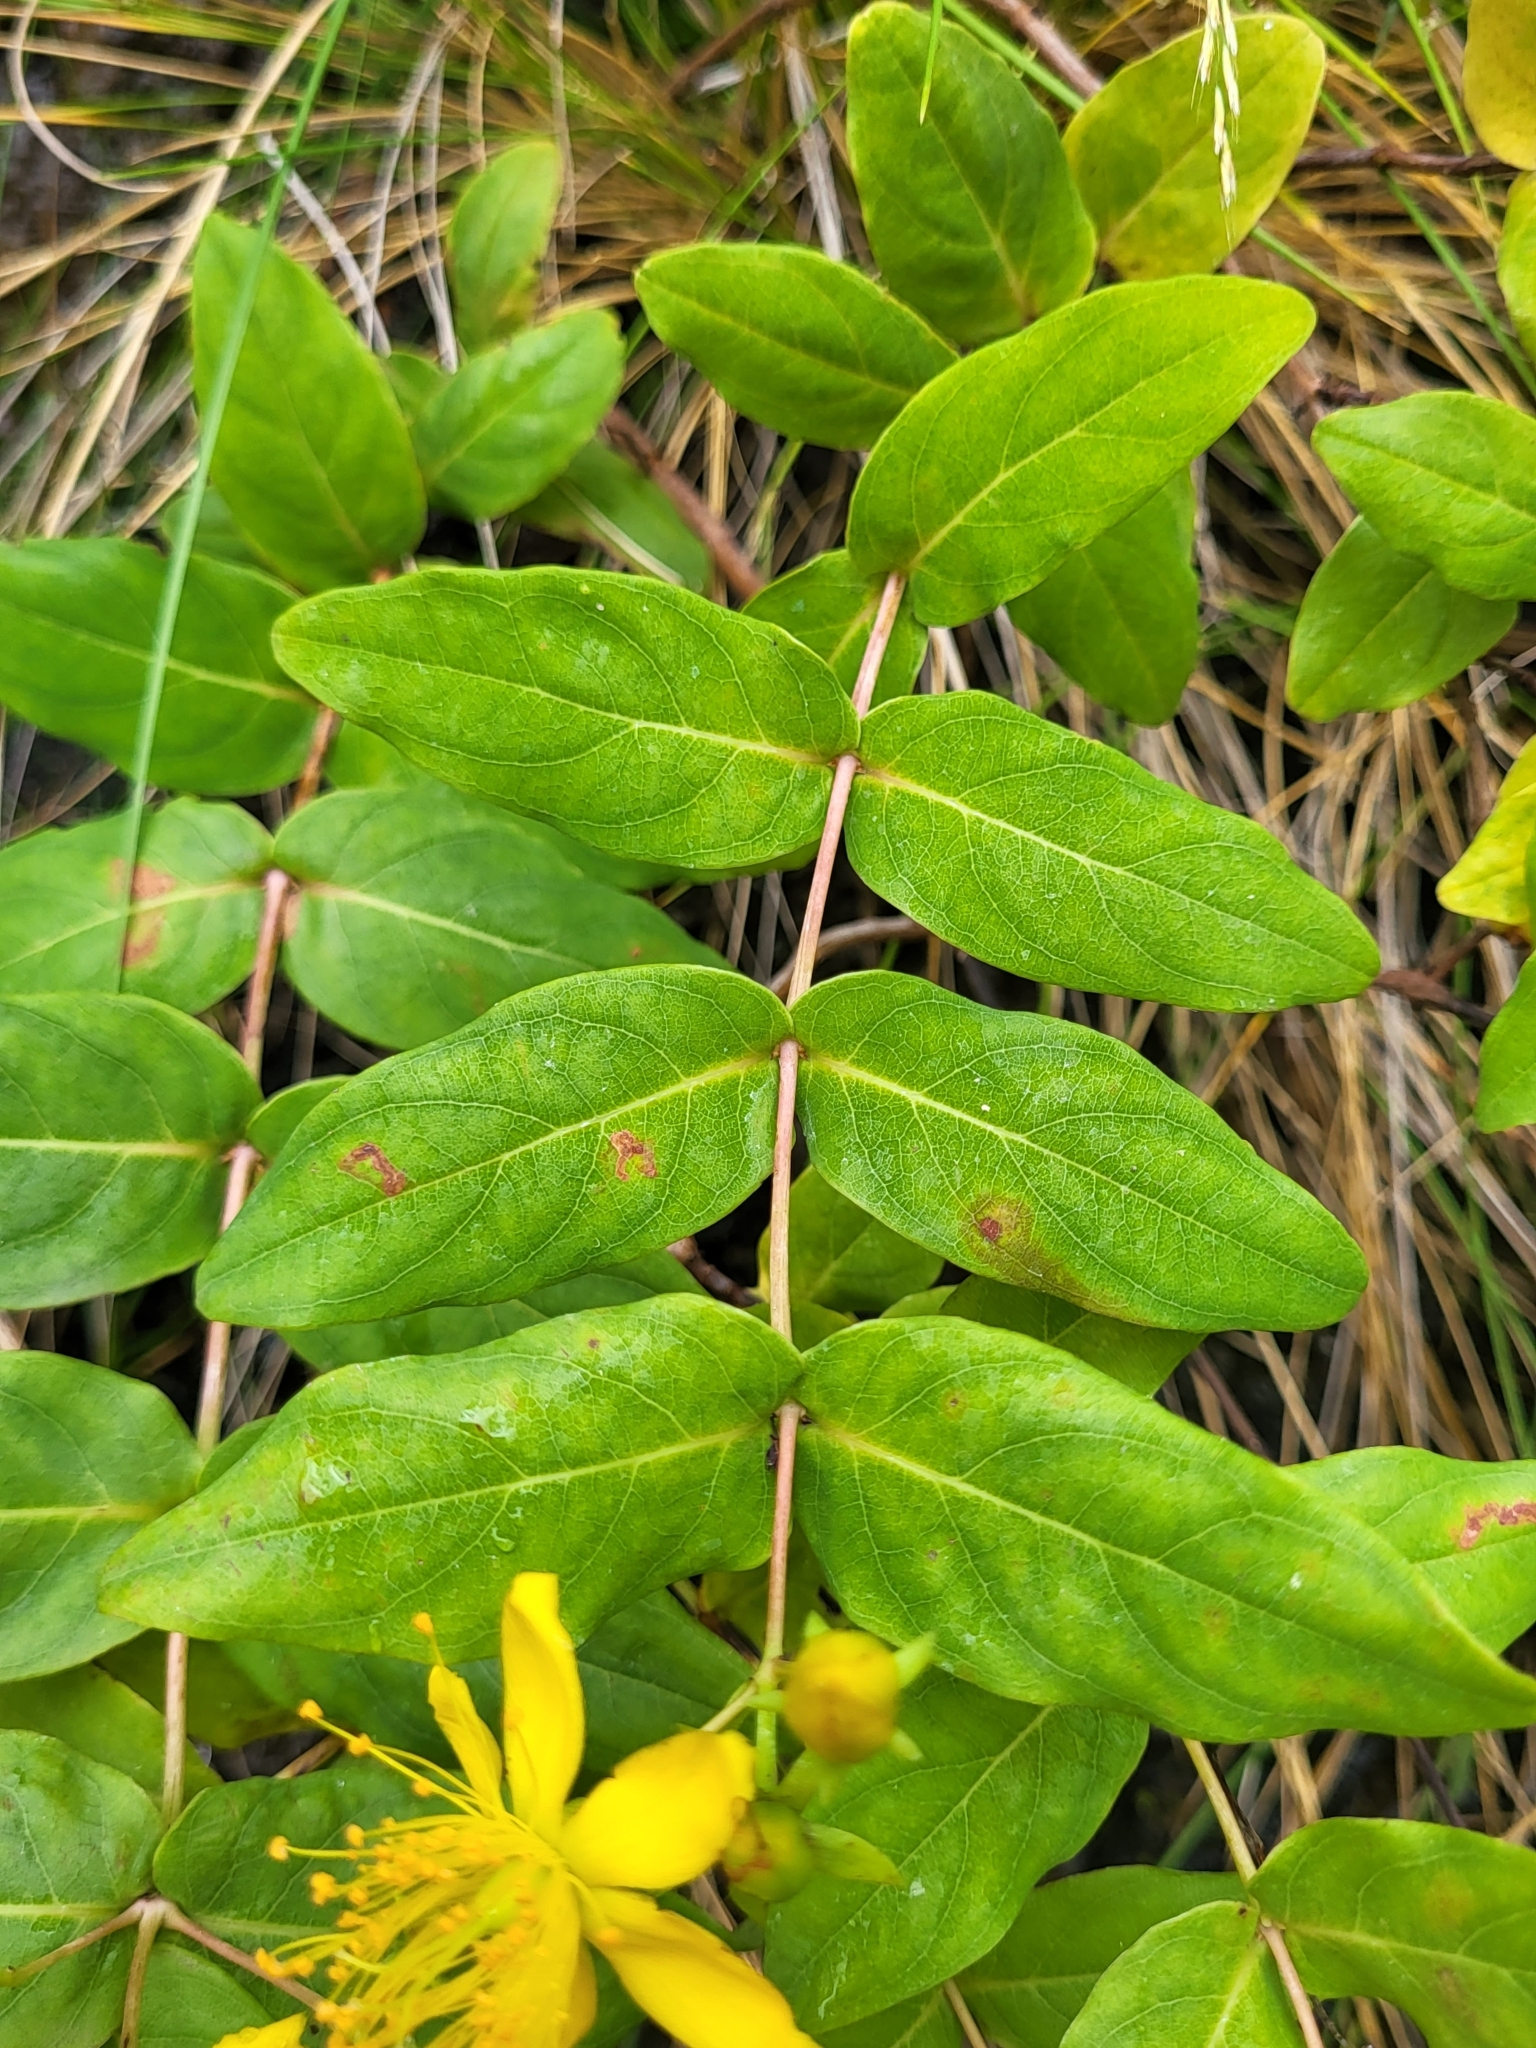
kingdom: Plantae
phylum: Tracheophyta
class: Magnoliopsida
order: Malpighiales
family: Hypericaceae
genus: Hypericum
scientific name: Hypericum grandifolium
